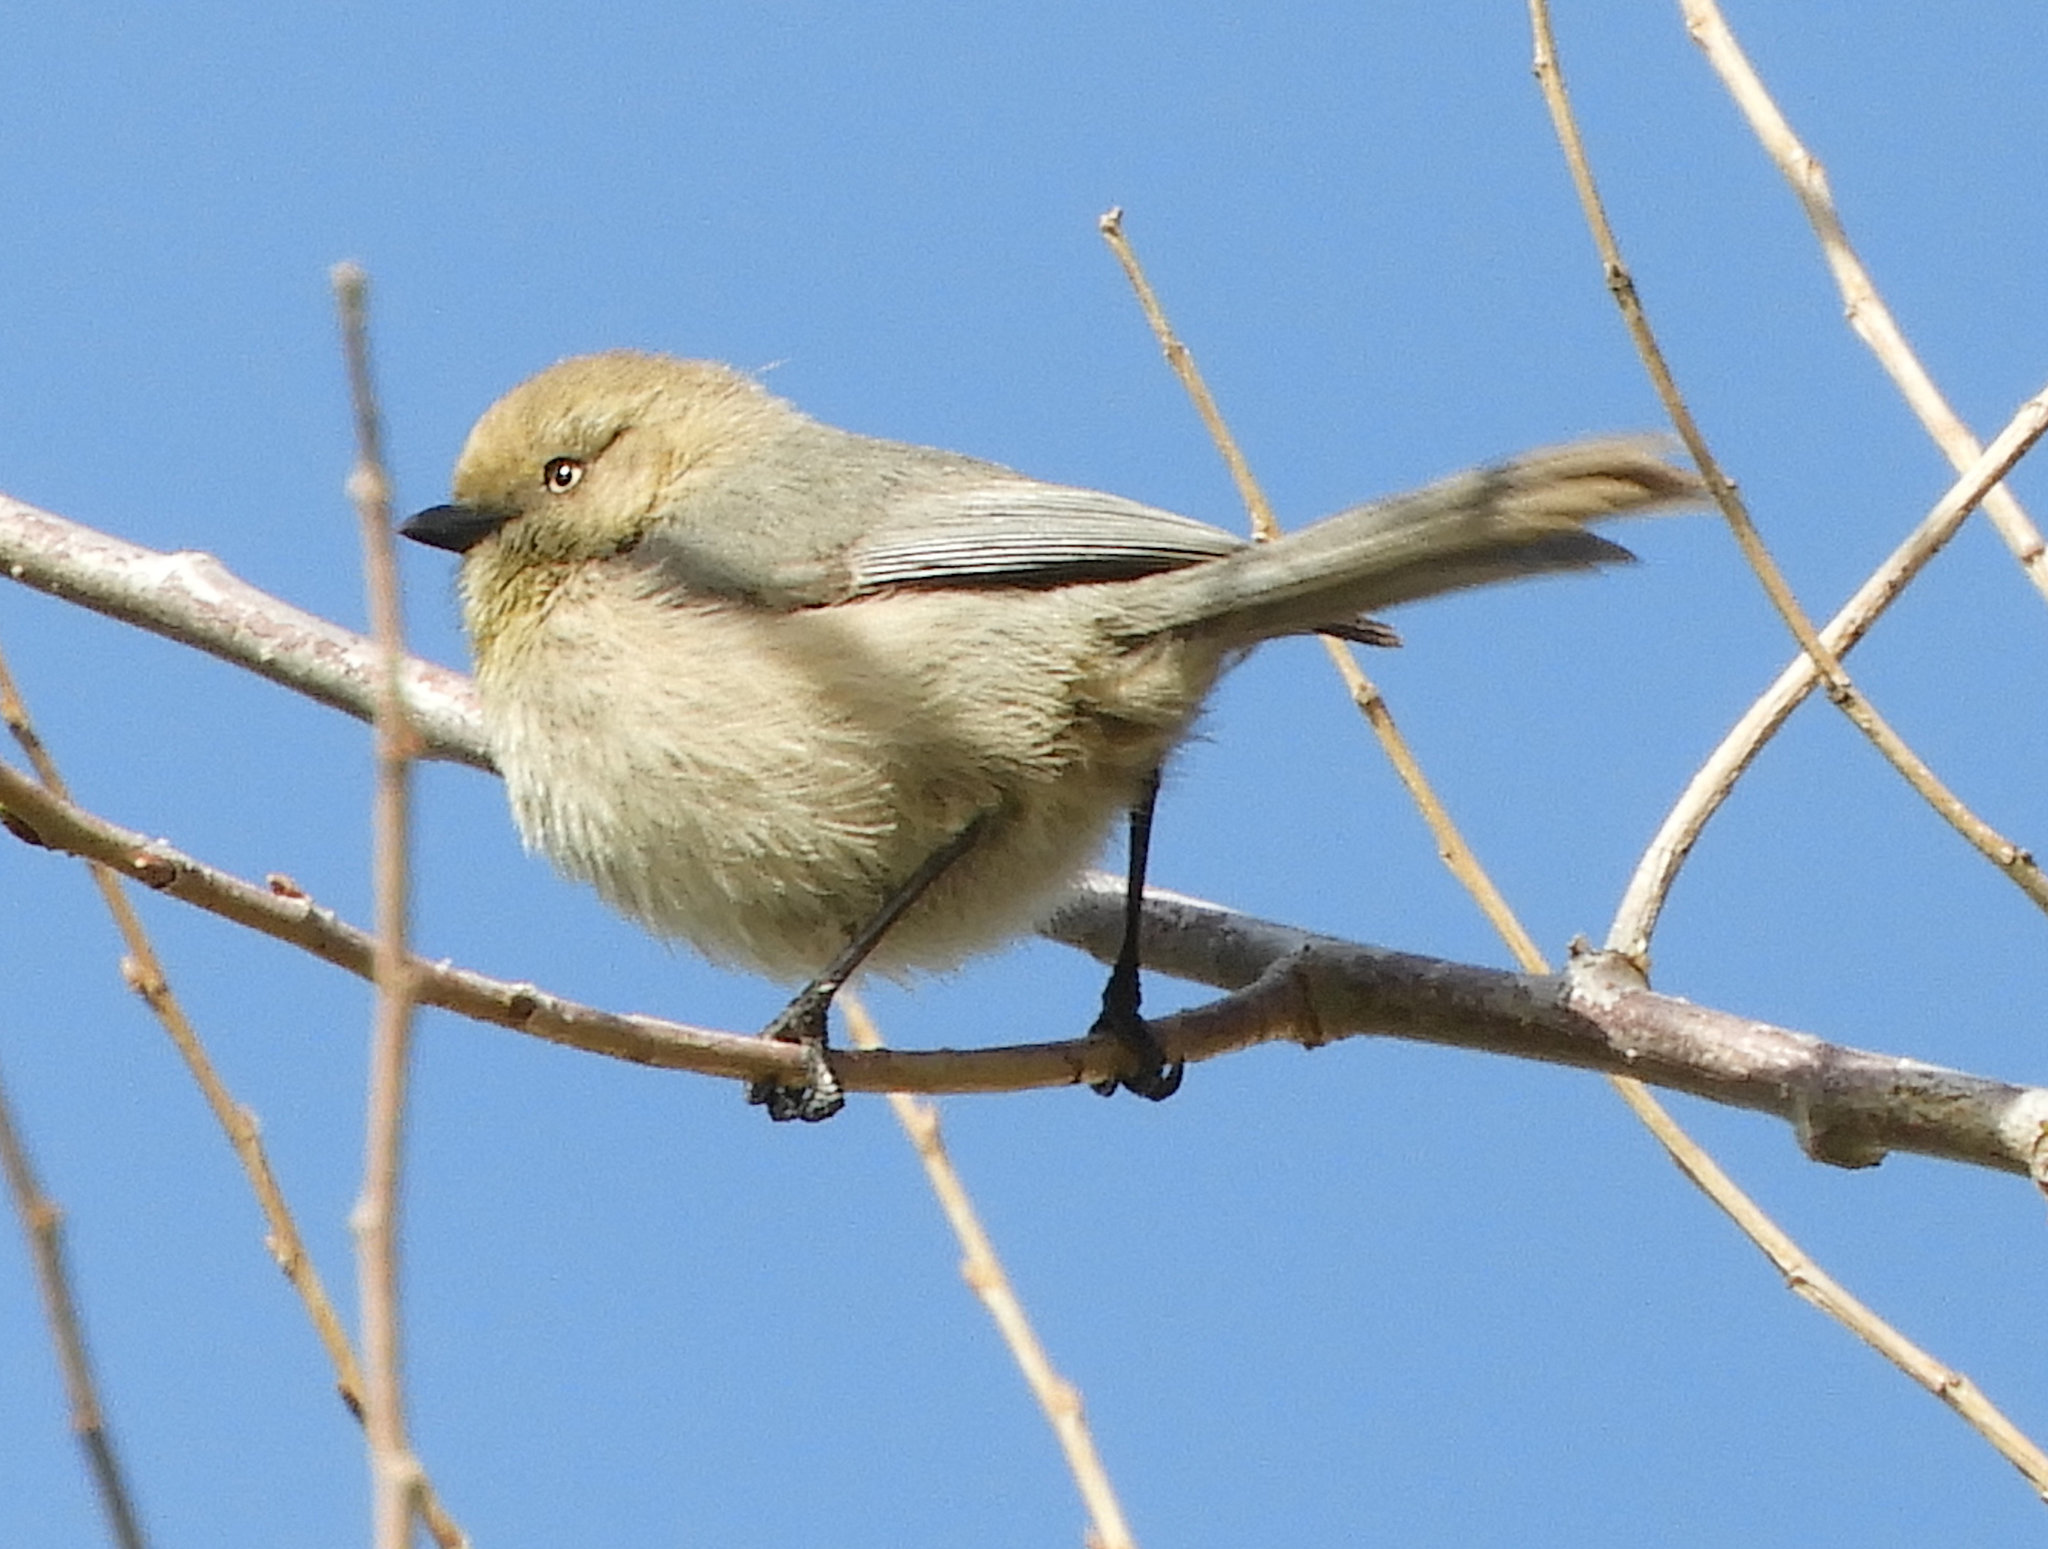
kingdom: Animalia
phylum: Chordata
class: Aves
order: Passeriformes
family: Aegithalidae
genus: Psaltriparus
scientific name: Psaltriparus minimus
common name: American bushtit
